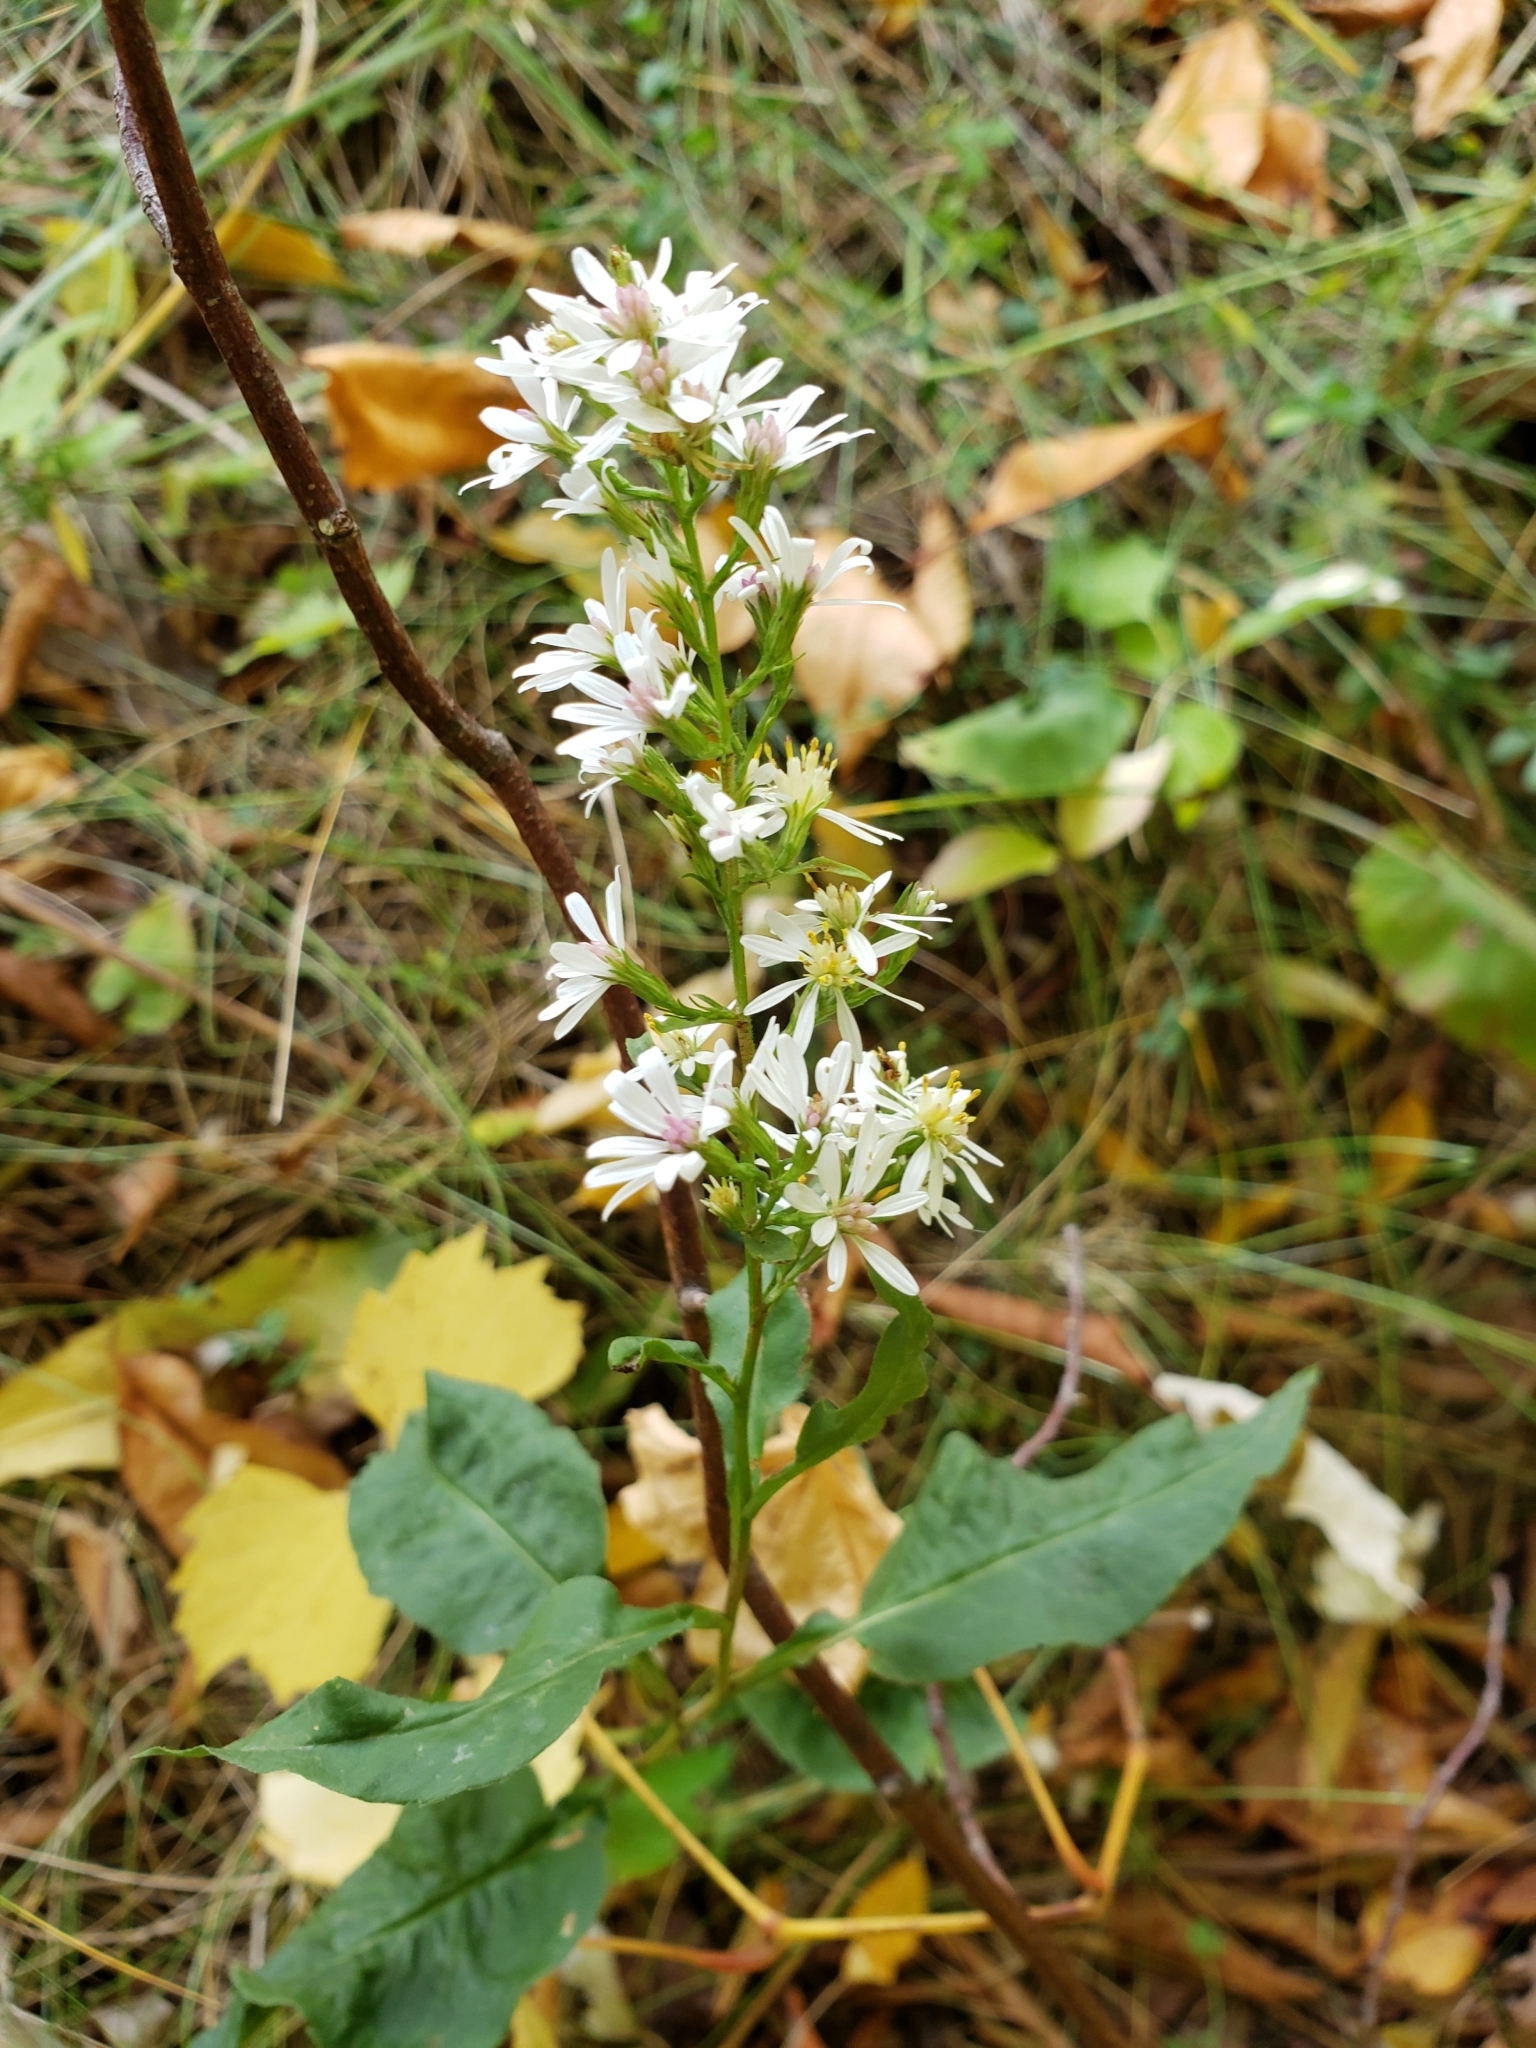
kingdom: Plantae
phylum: Tracheophyta
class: Magnoliopsida
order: Asterales
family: Asteraceae
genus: Symphyotrichum
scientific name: Symphyotrichum urophyllum
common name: Arrow-leaved aster
